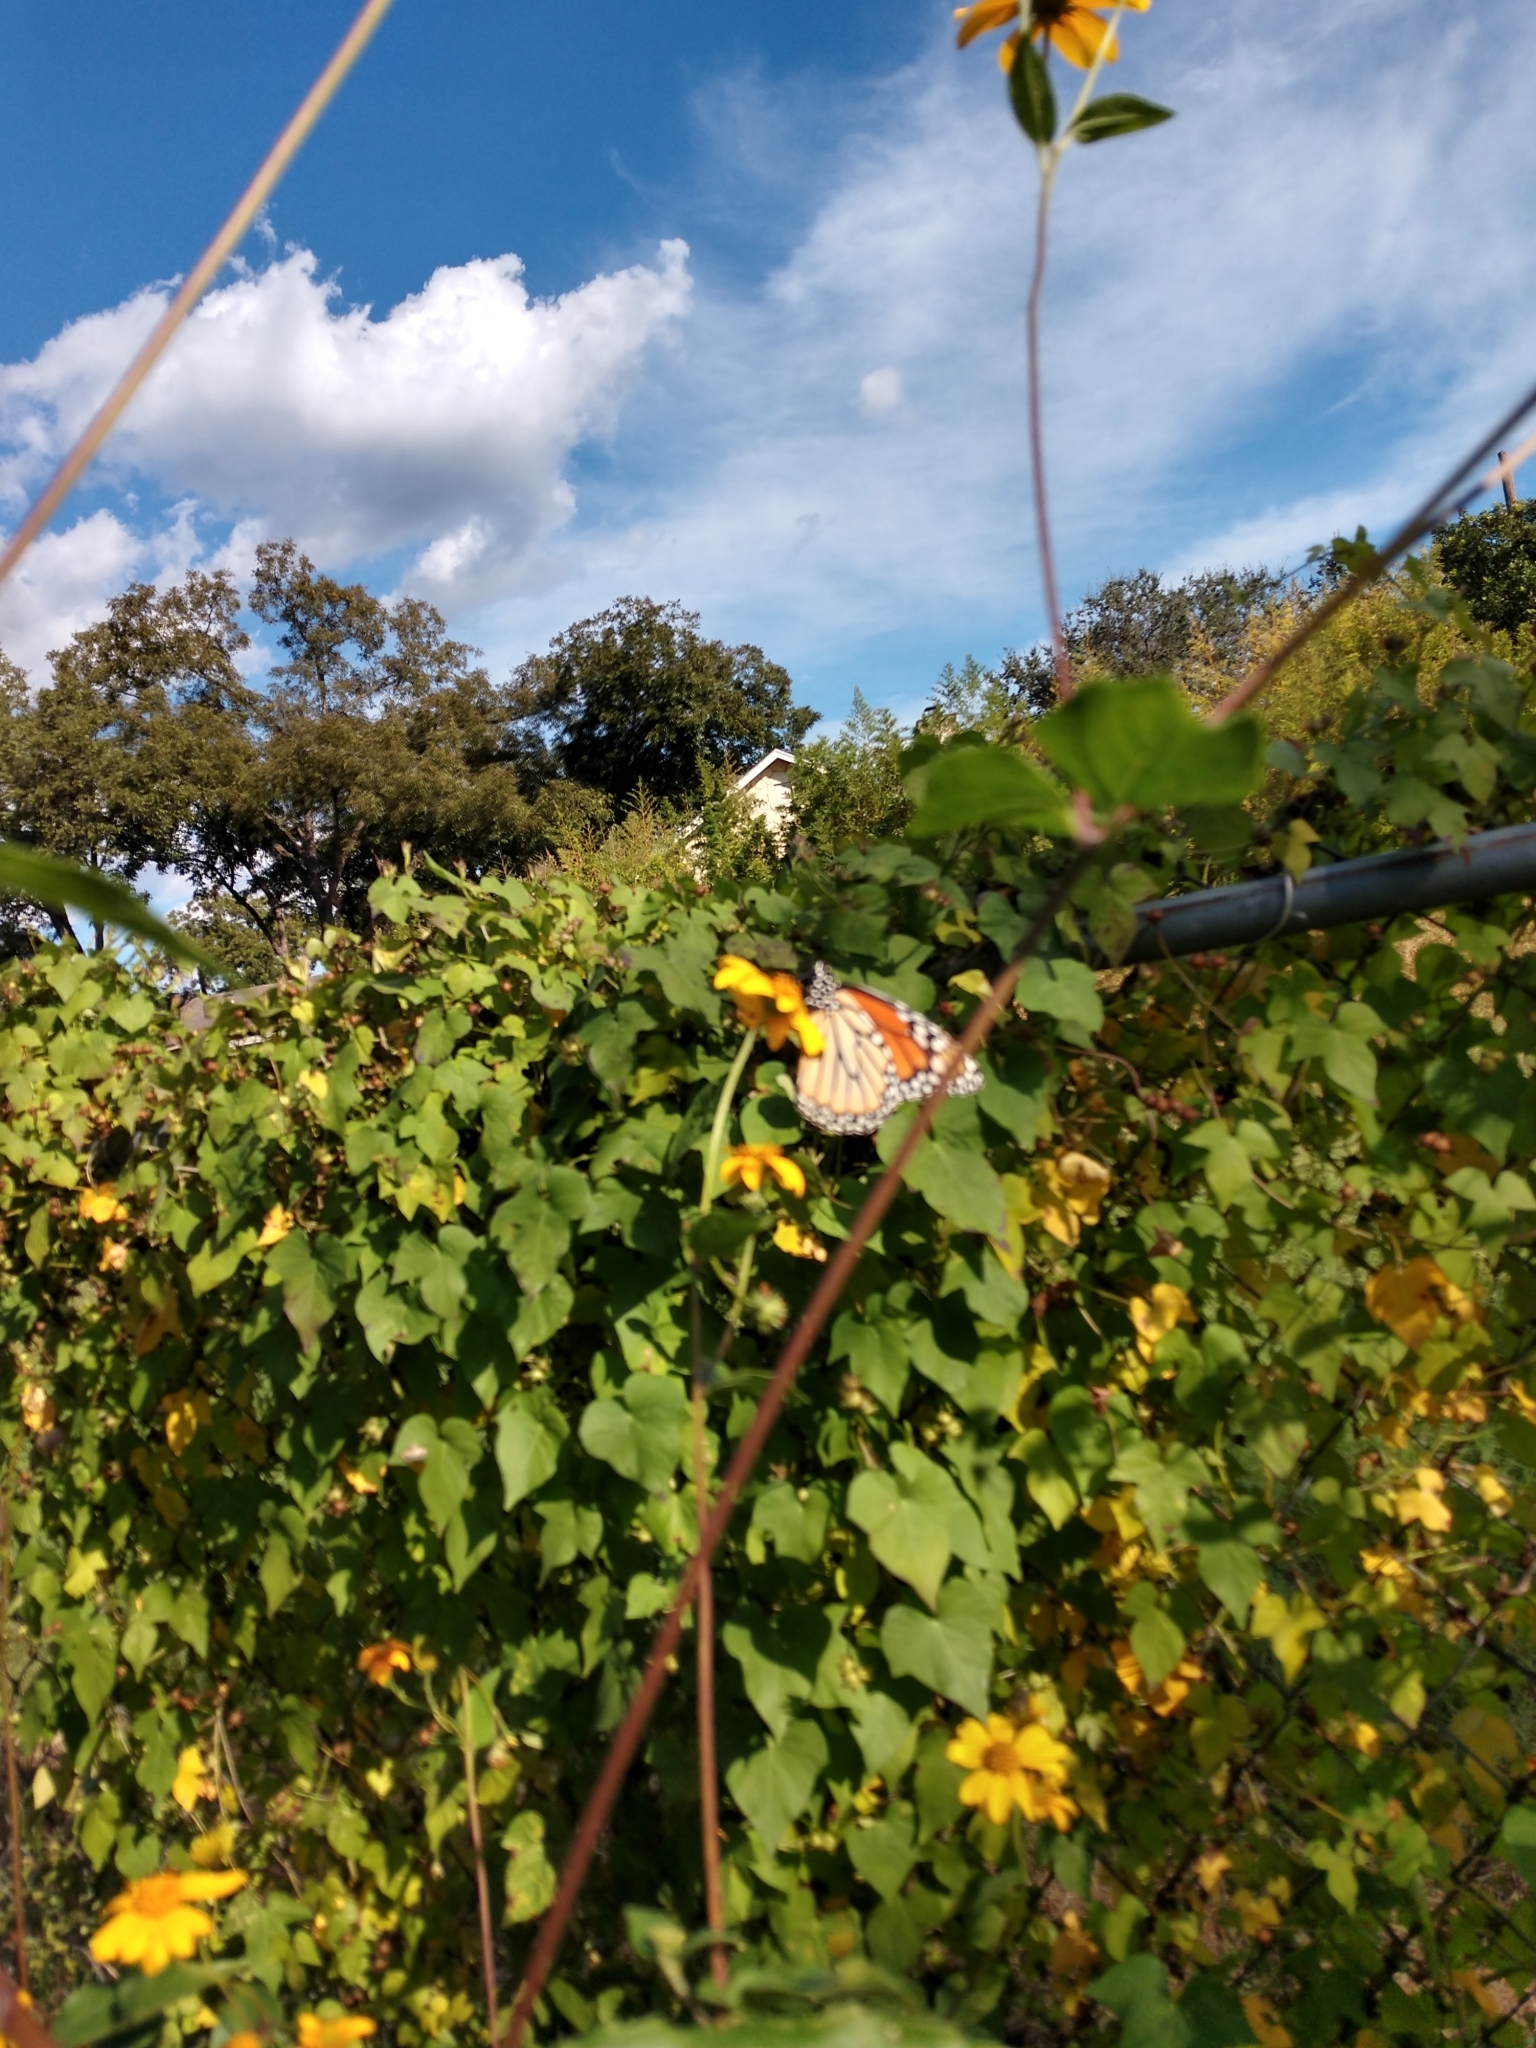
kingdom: Animalia
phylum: Arthropoda
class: Insecta
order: Lepidoptera
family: Nymphalidae
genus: Danaus
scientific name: Danaus plexippus
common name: Monarch
